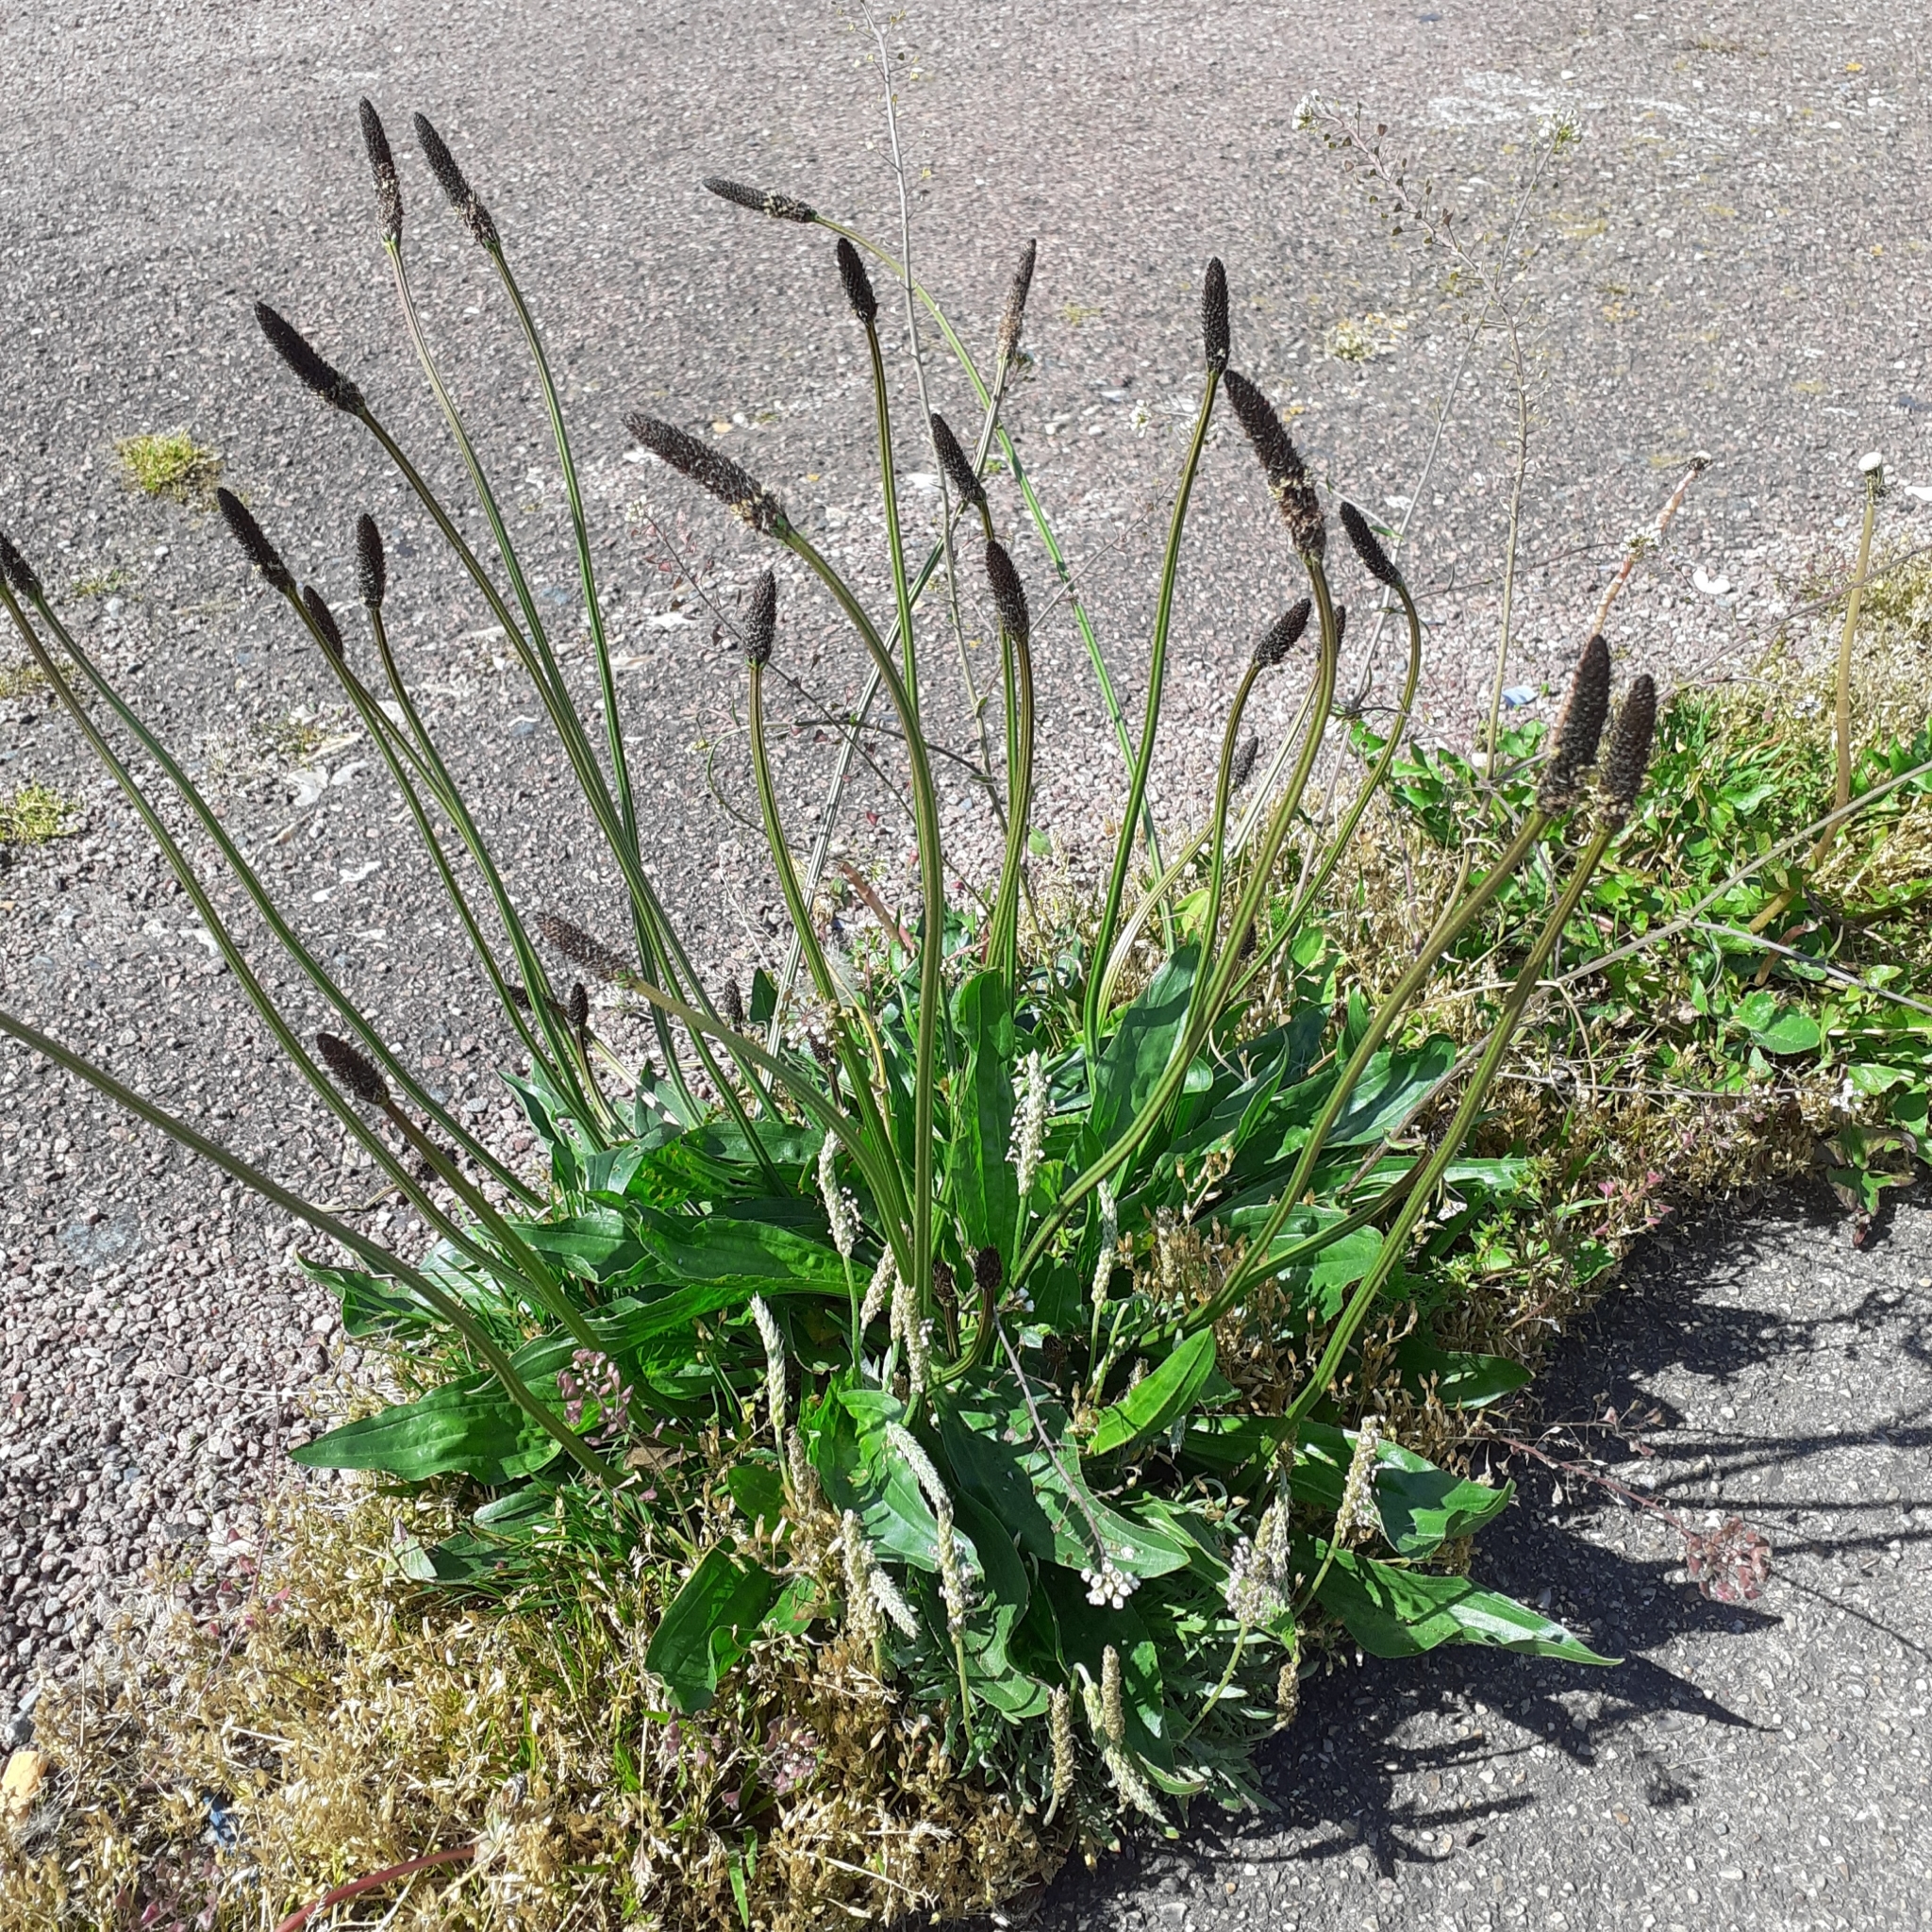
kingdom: Plantae
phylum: Tracheophyta
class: Magnoliopsida
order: Lamiales
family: Plantaginaceae
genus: Plantago
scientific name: Plantago lanceolata
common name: Ribwort plantain
